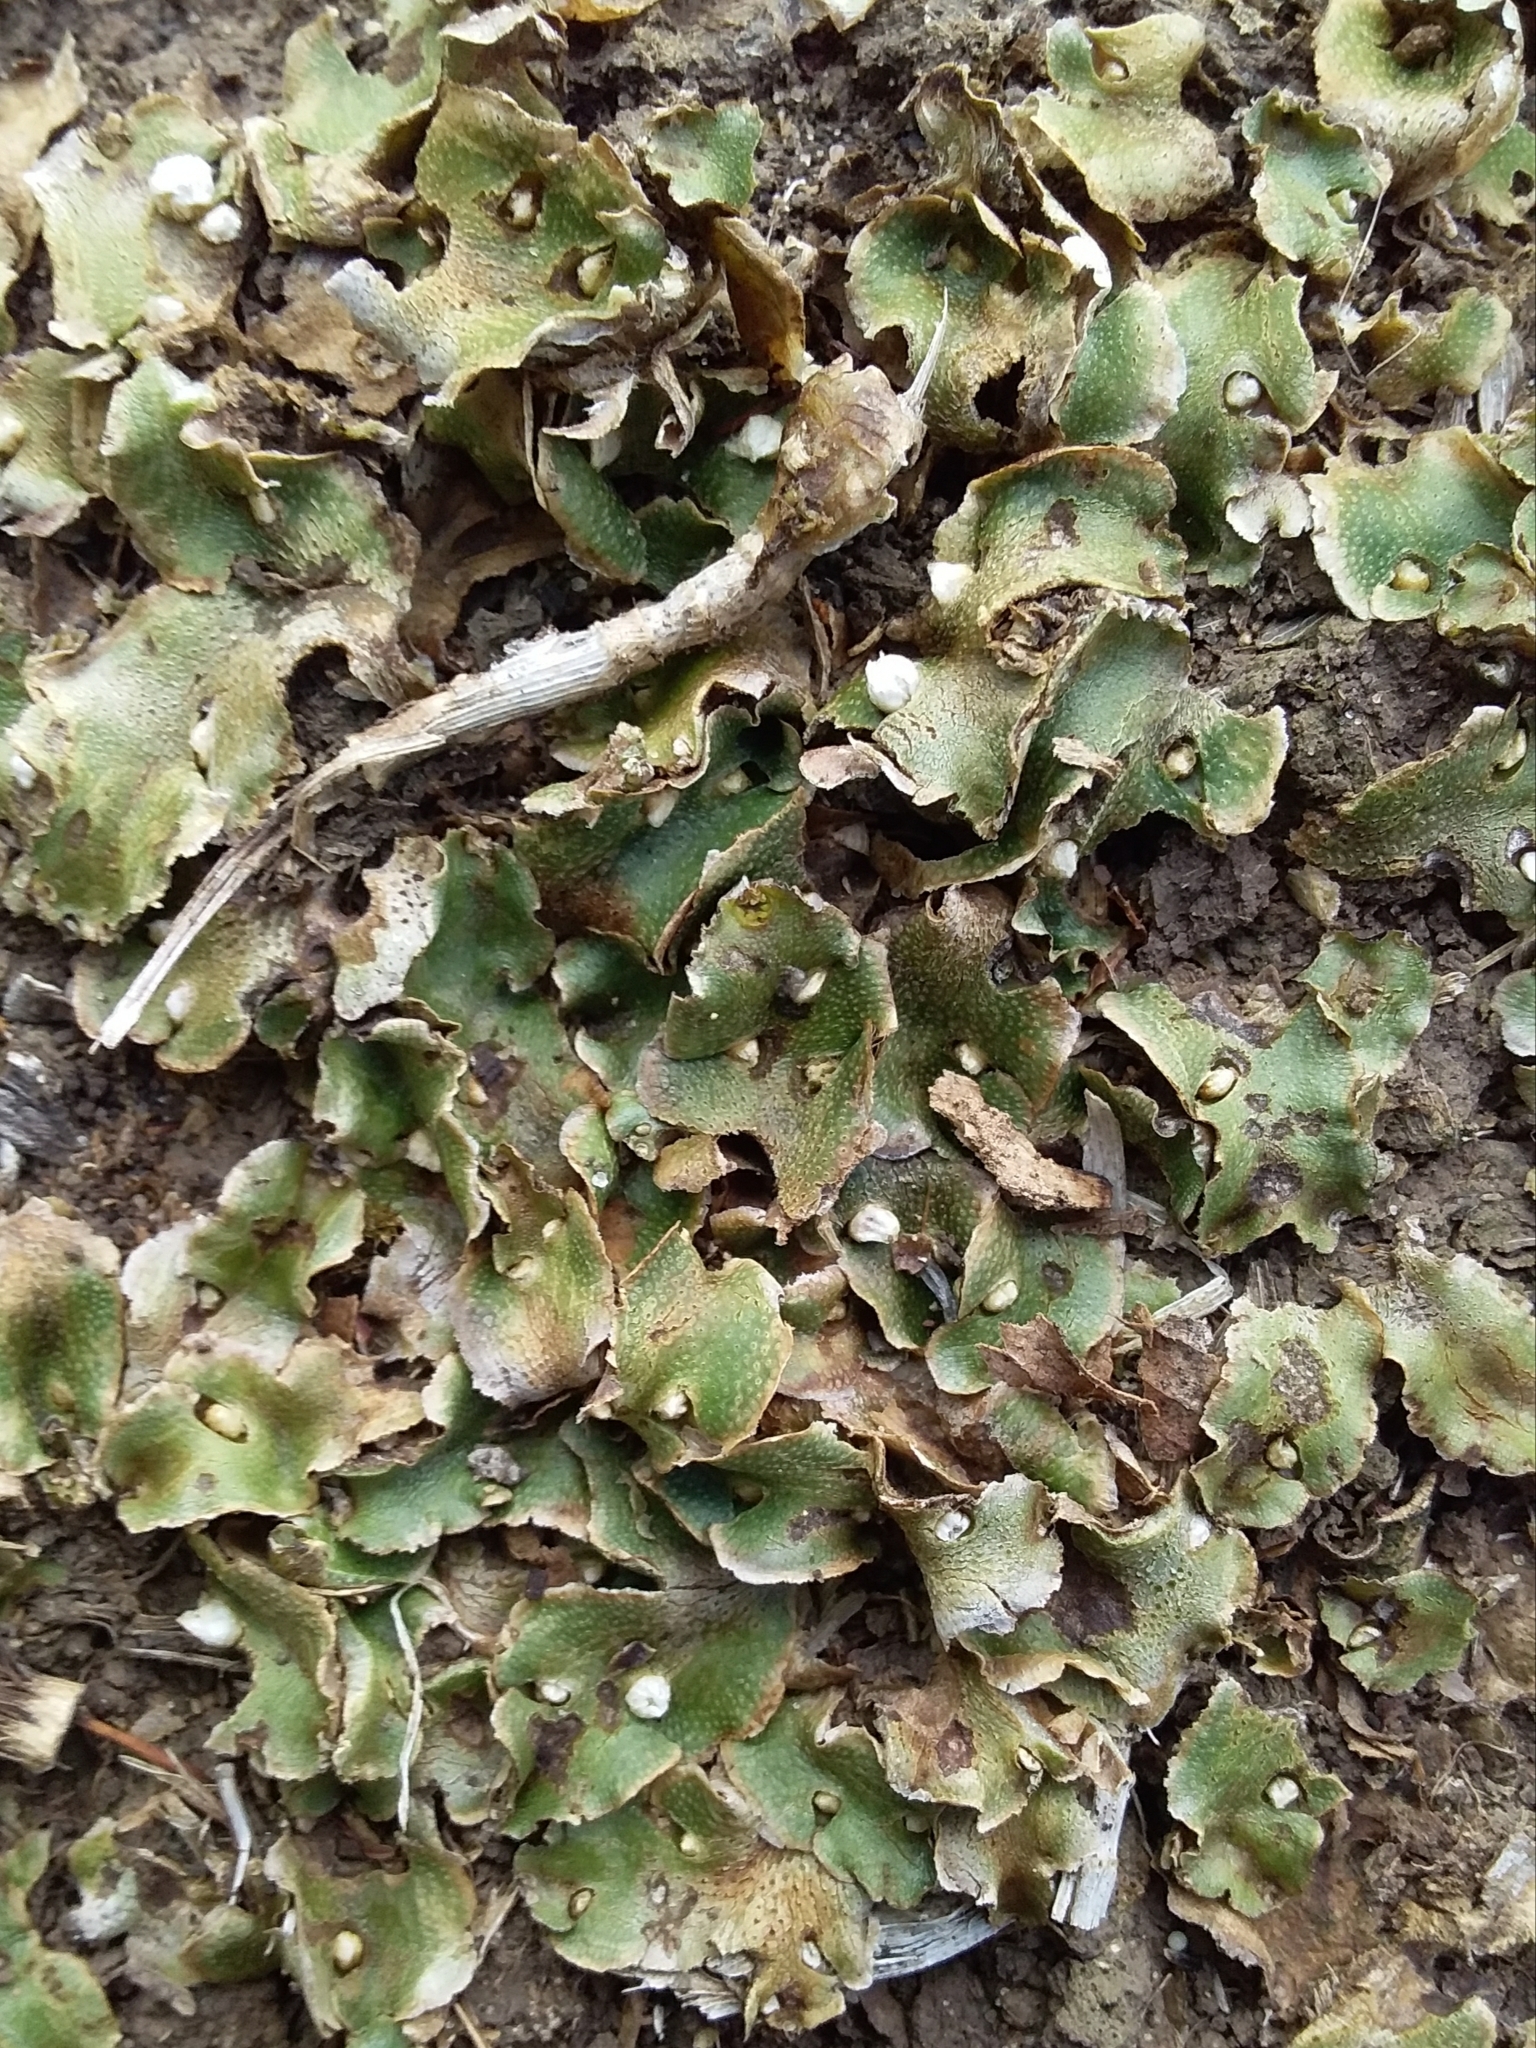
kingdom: Plantae
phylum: Marchantiophyta
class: Marchantiopsida
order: Lunulariales
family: Lunulariaceae
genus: Lunularia
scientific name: Lunularia cruciata
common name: Crescent-cup liverwort
